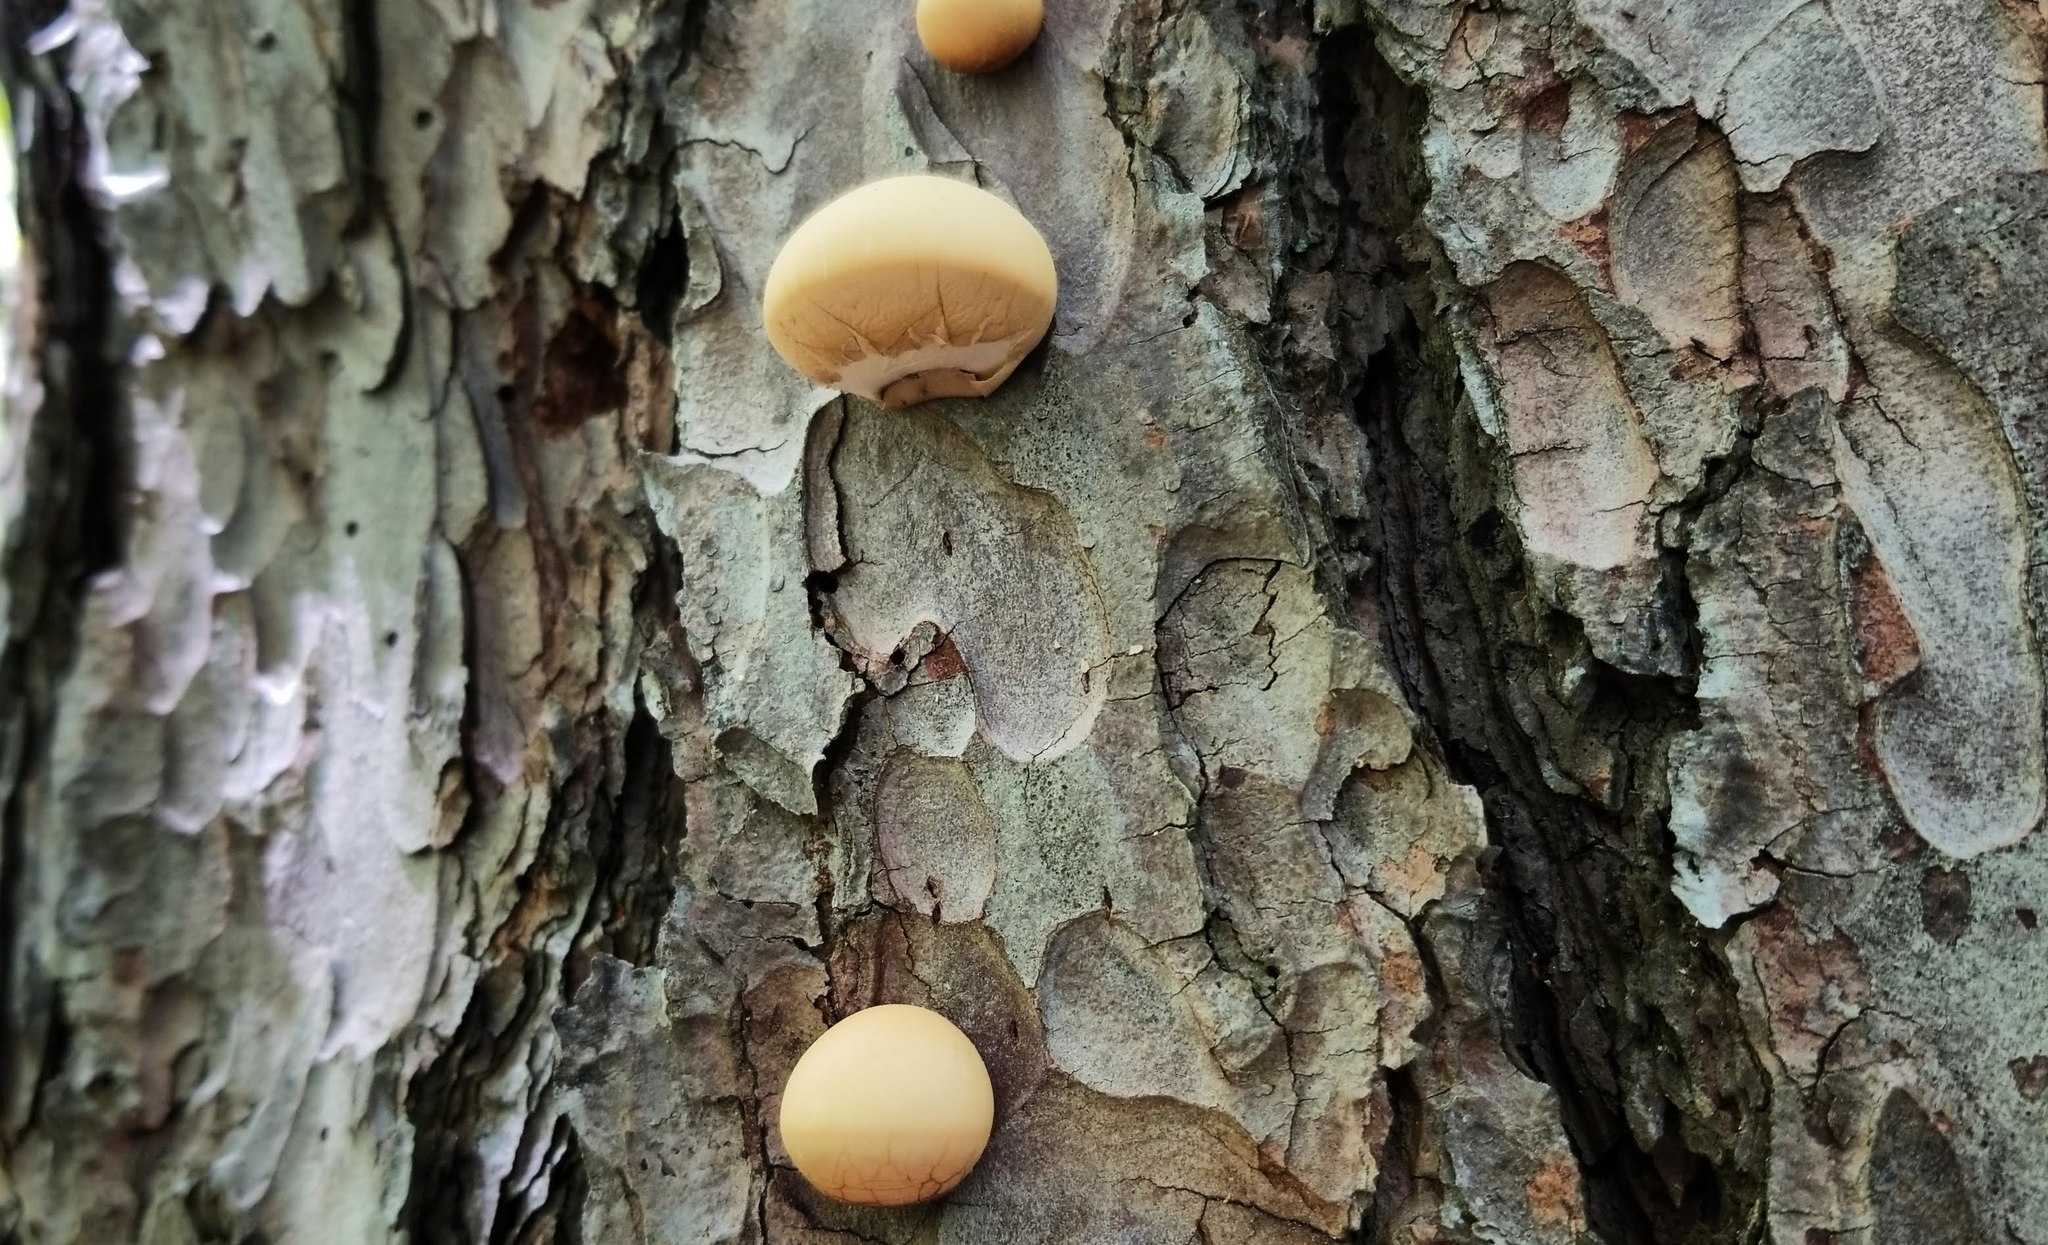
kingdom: Fungi
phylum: Basidiomycota
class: Agaricomycetes
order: Polyporales
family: Polyporaceae
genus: Cryptoporus
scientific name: Cryptoporus volvatus
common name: Veiled polypore
